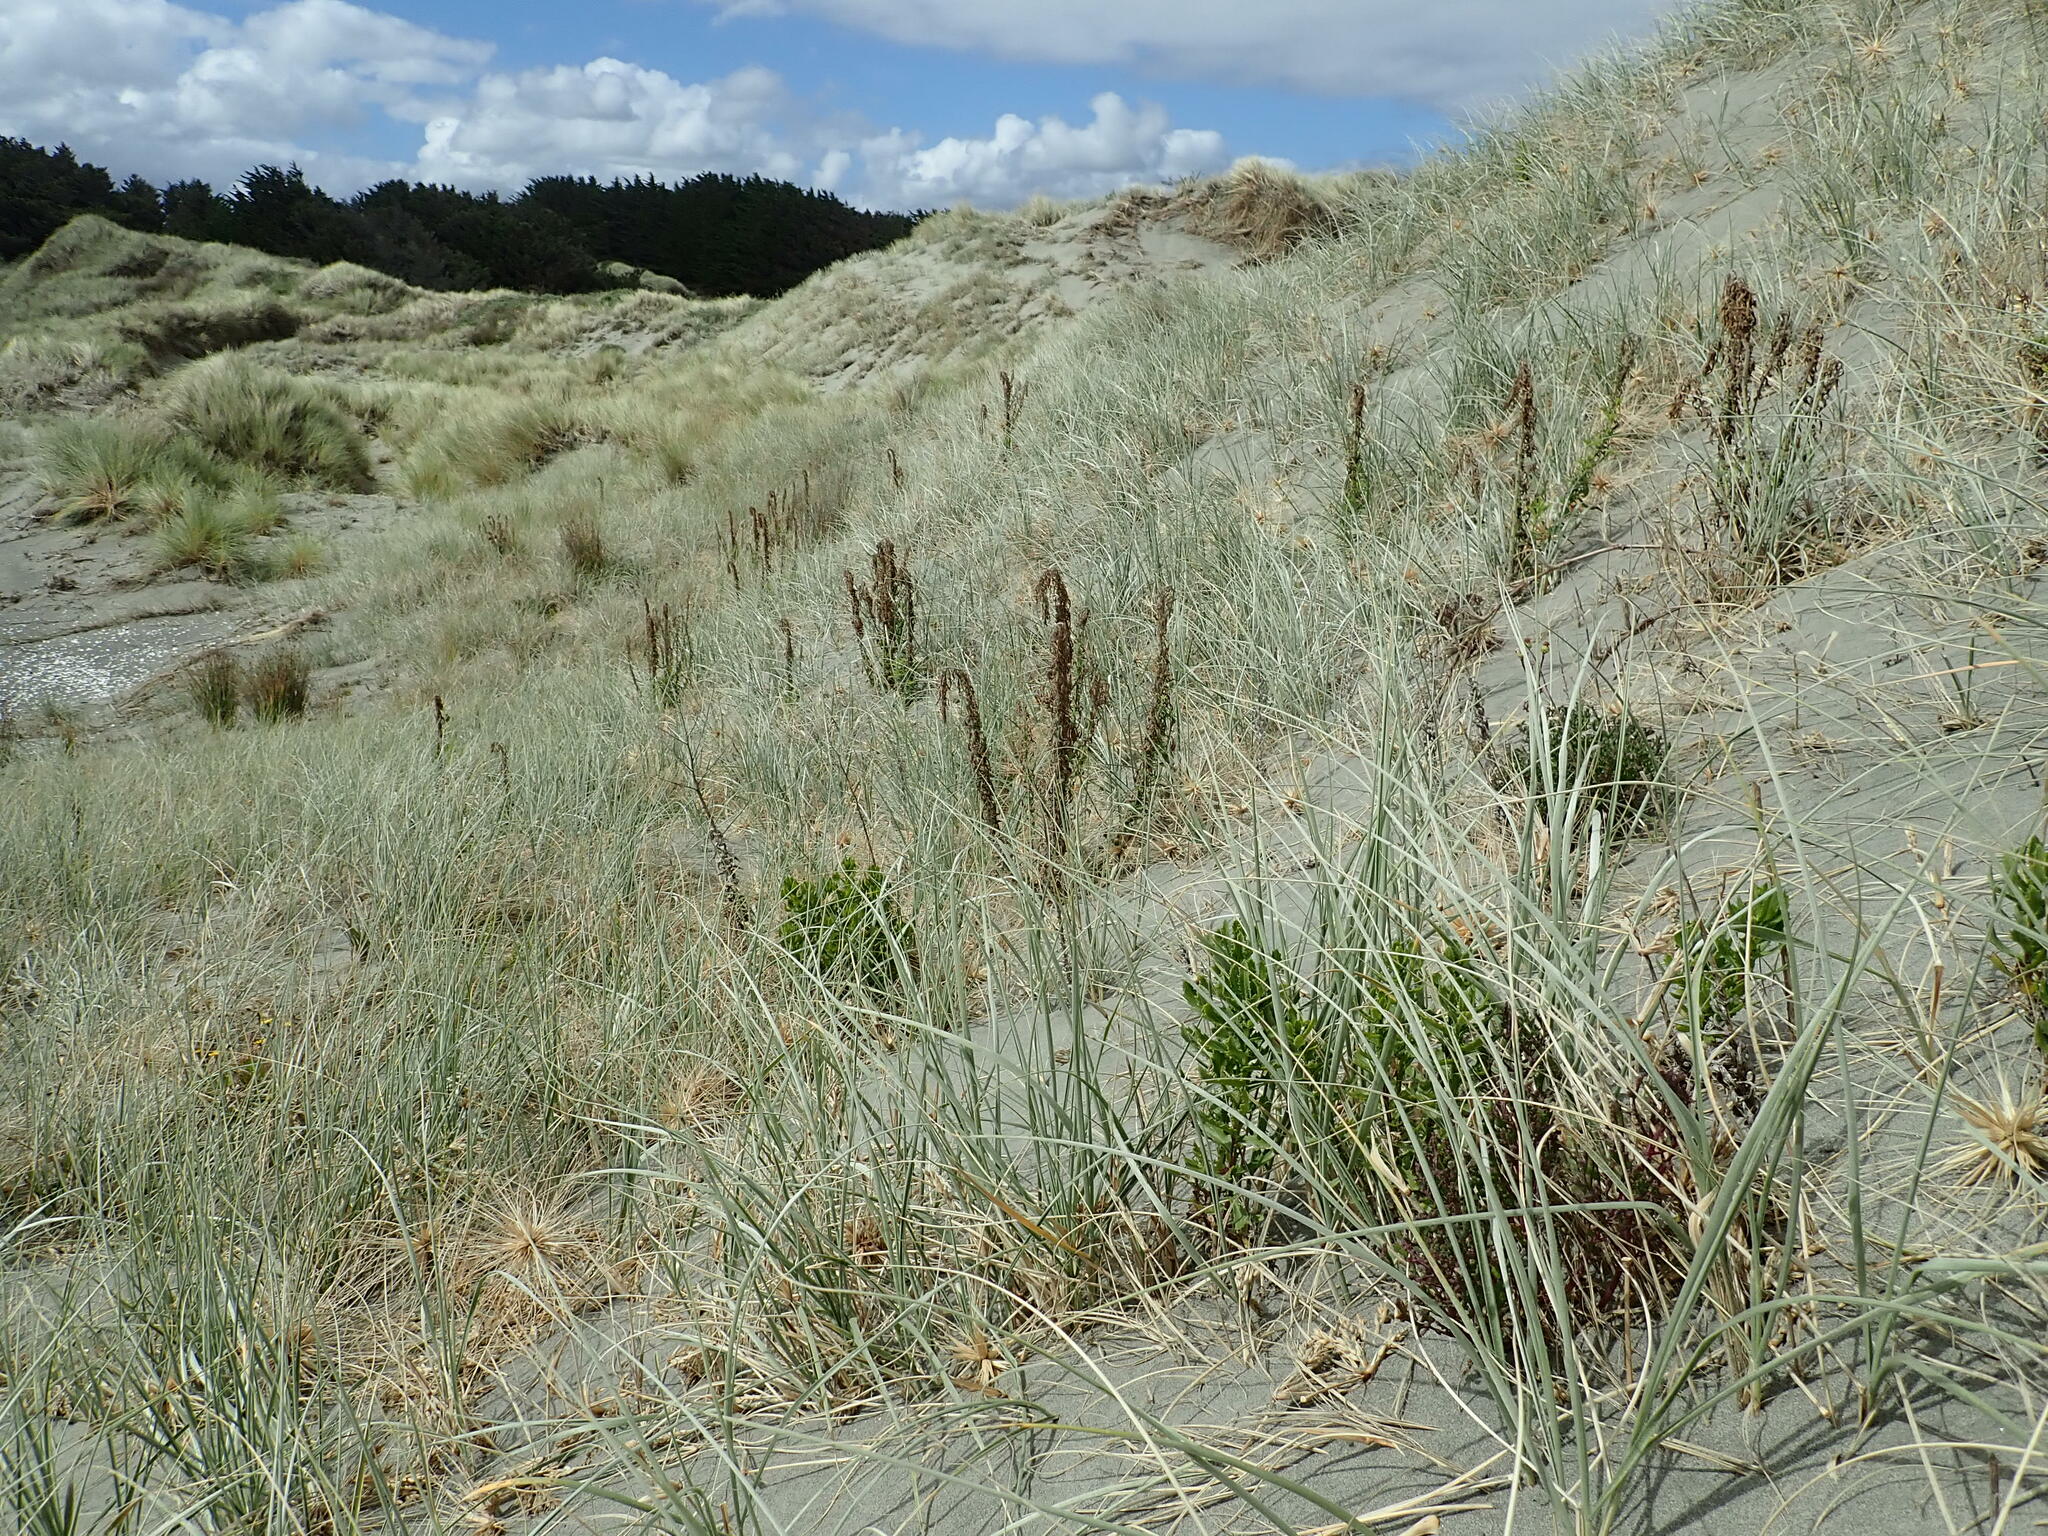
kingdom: Plantae
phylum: Tracheophyta
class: Magnoliopsida
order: Asterales
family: Asteraceae
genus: Erigeron
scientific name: Erigeron sumatrensis
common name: Daisy
